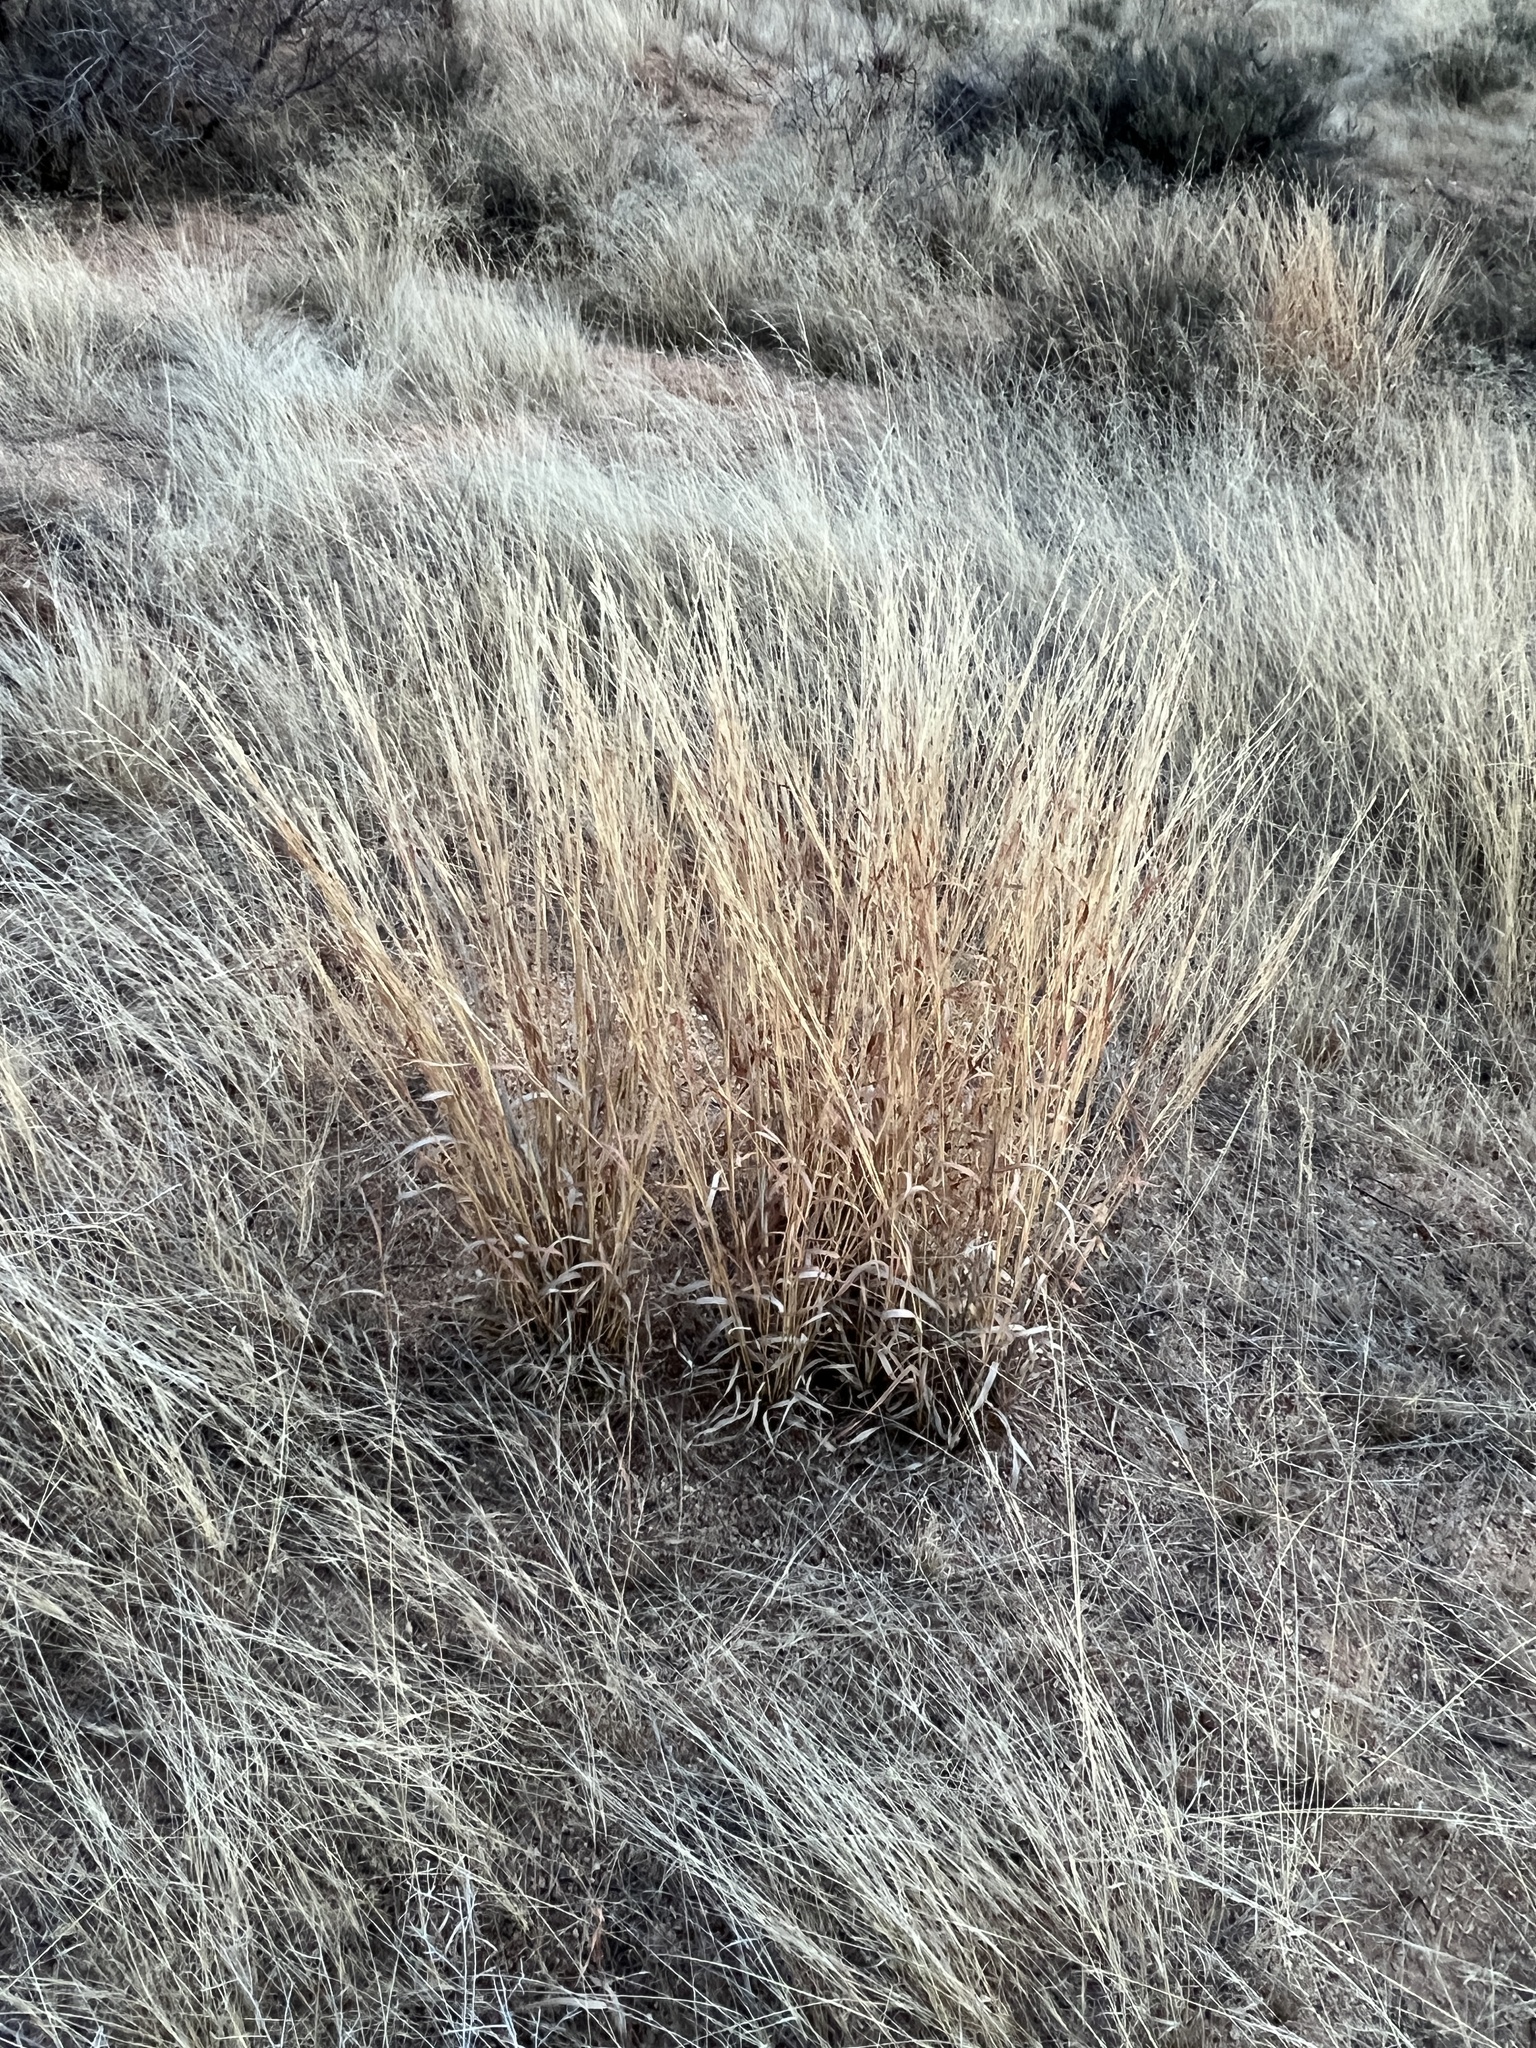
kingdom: Plantae
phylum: Tracheophyta
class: Liliopsida
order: Poales
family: Poaceae
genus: Bothriochloa
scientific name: Bothriochloa barbinodis
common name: Cane bluestem
